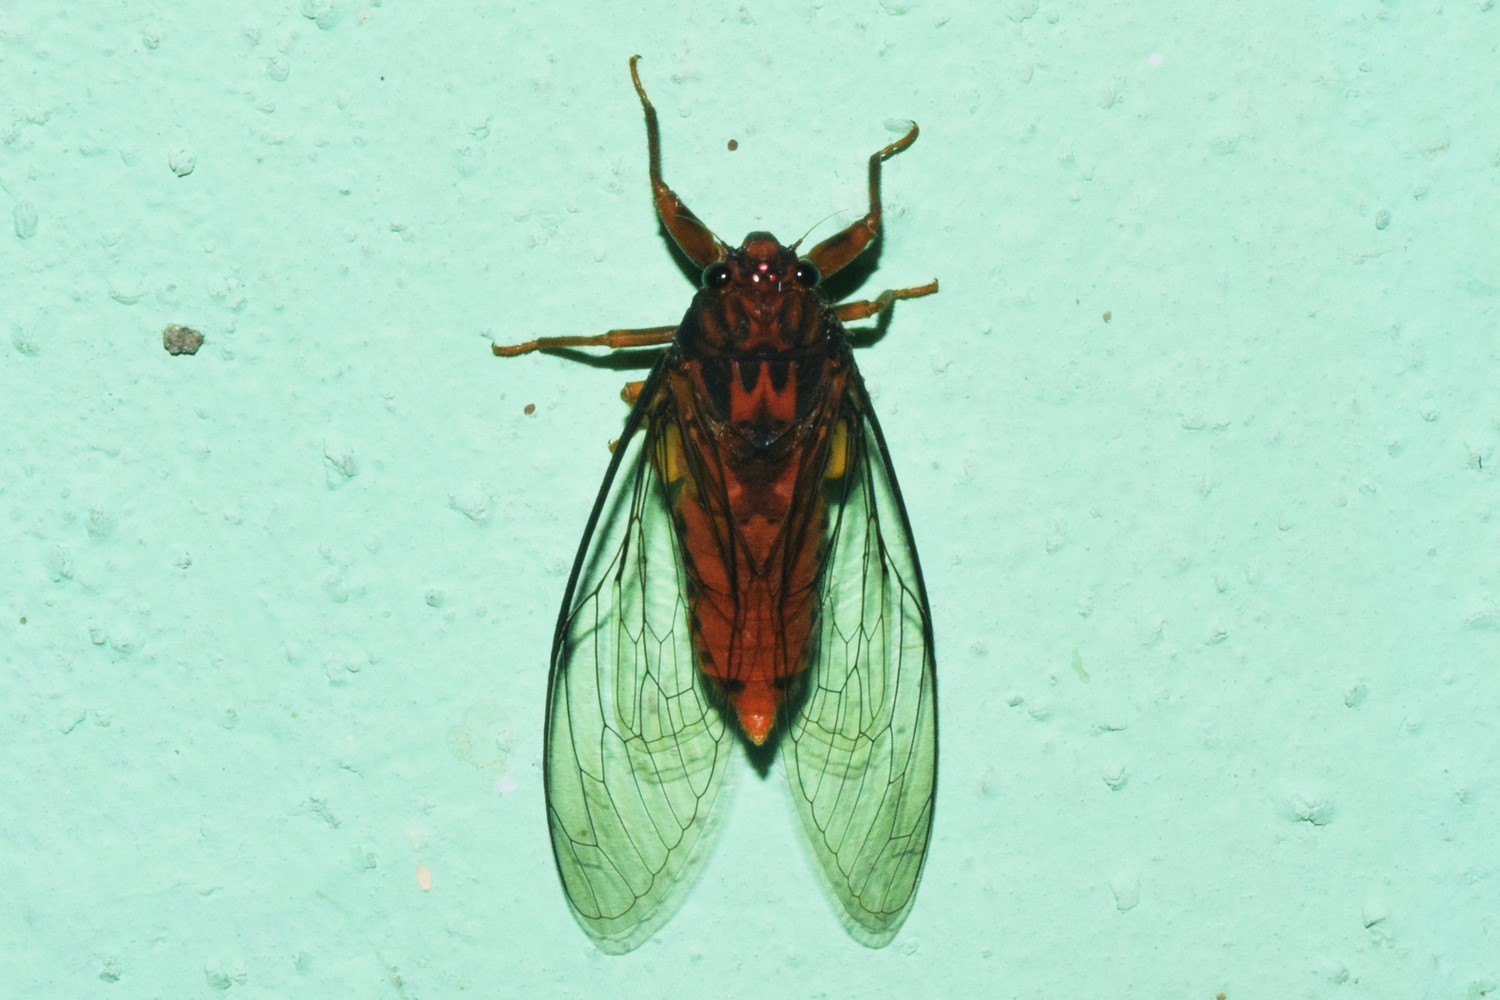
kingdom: Animalia
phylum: Arthropoda
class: Insecta
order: Hemiptera
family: Cicadidae
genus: Lahugada
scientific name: Lahugada dohertyi
